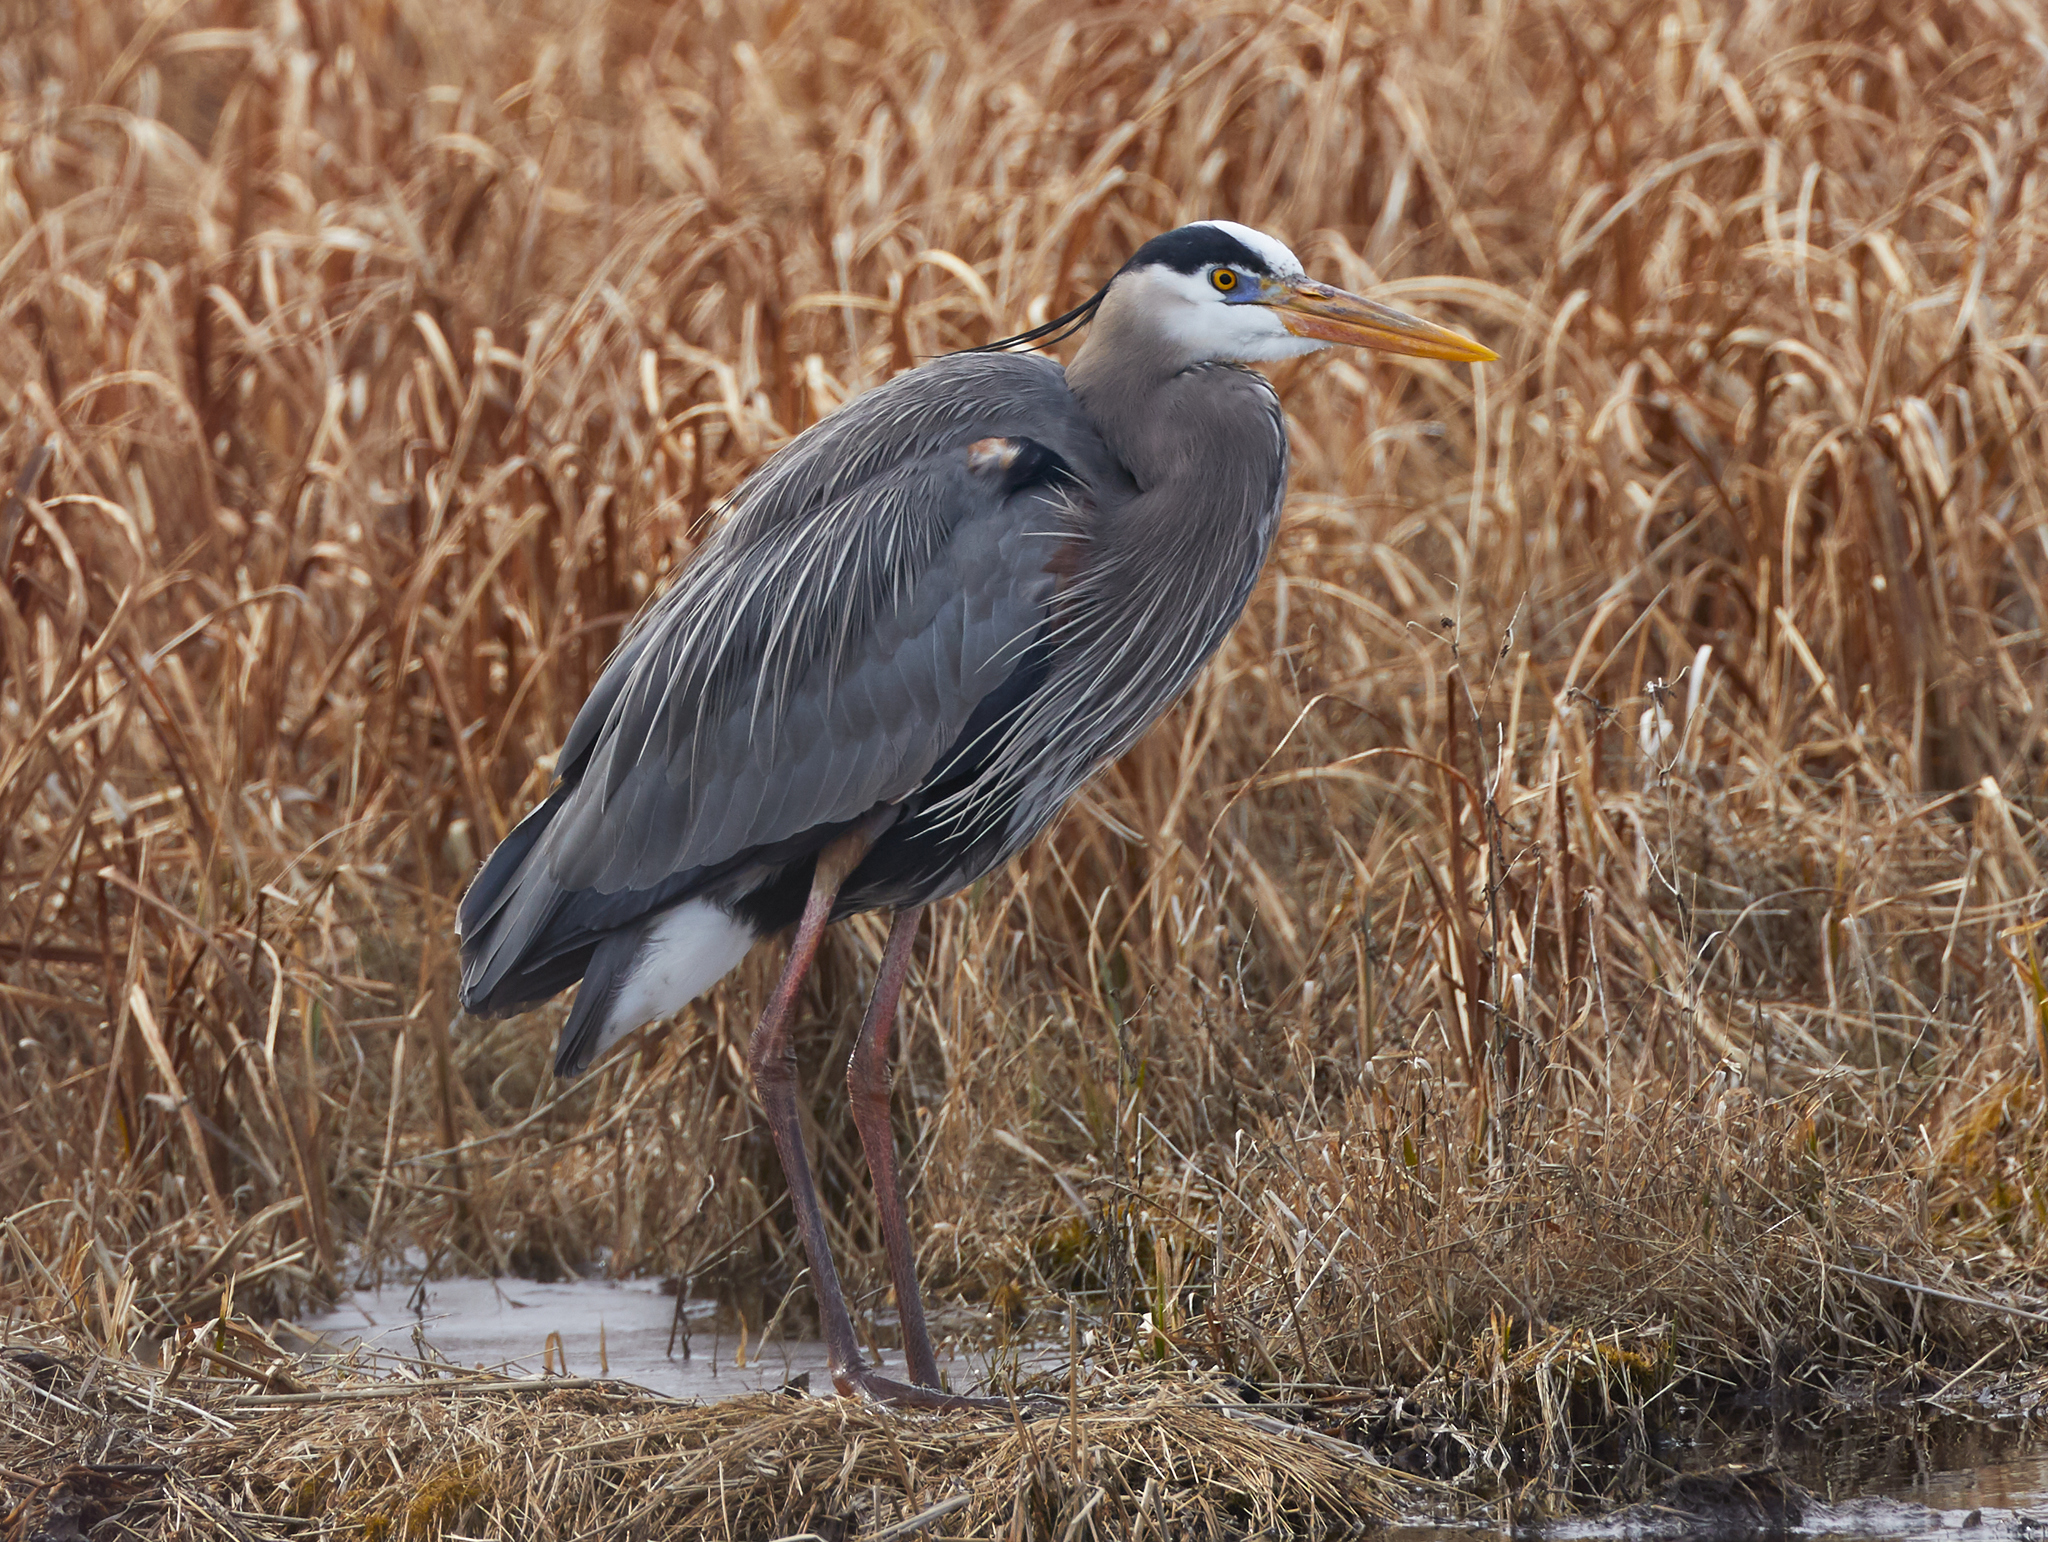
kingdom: Animalia
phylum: Chordata
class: Aves
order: Pelecaniformes
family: Ardeidae
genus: Ardea
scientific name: Ardea herodias
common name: Great blue heron
